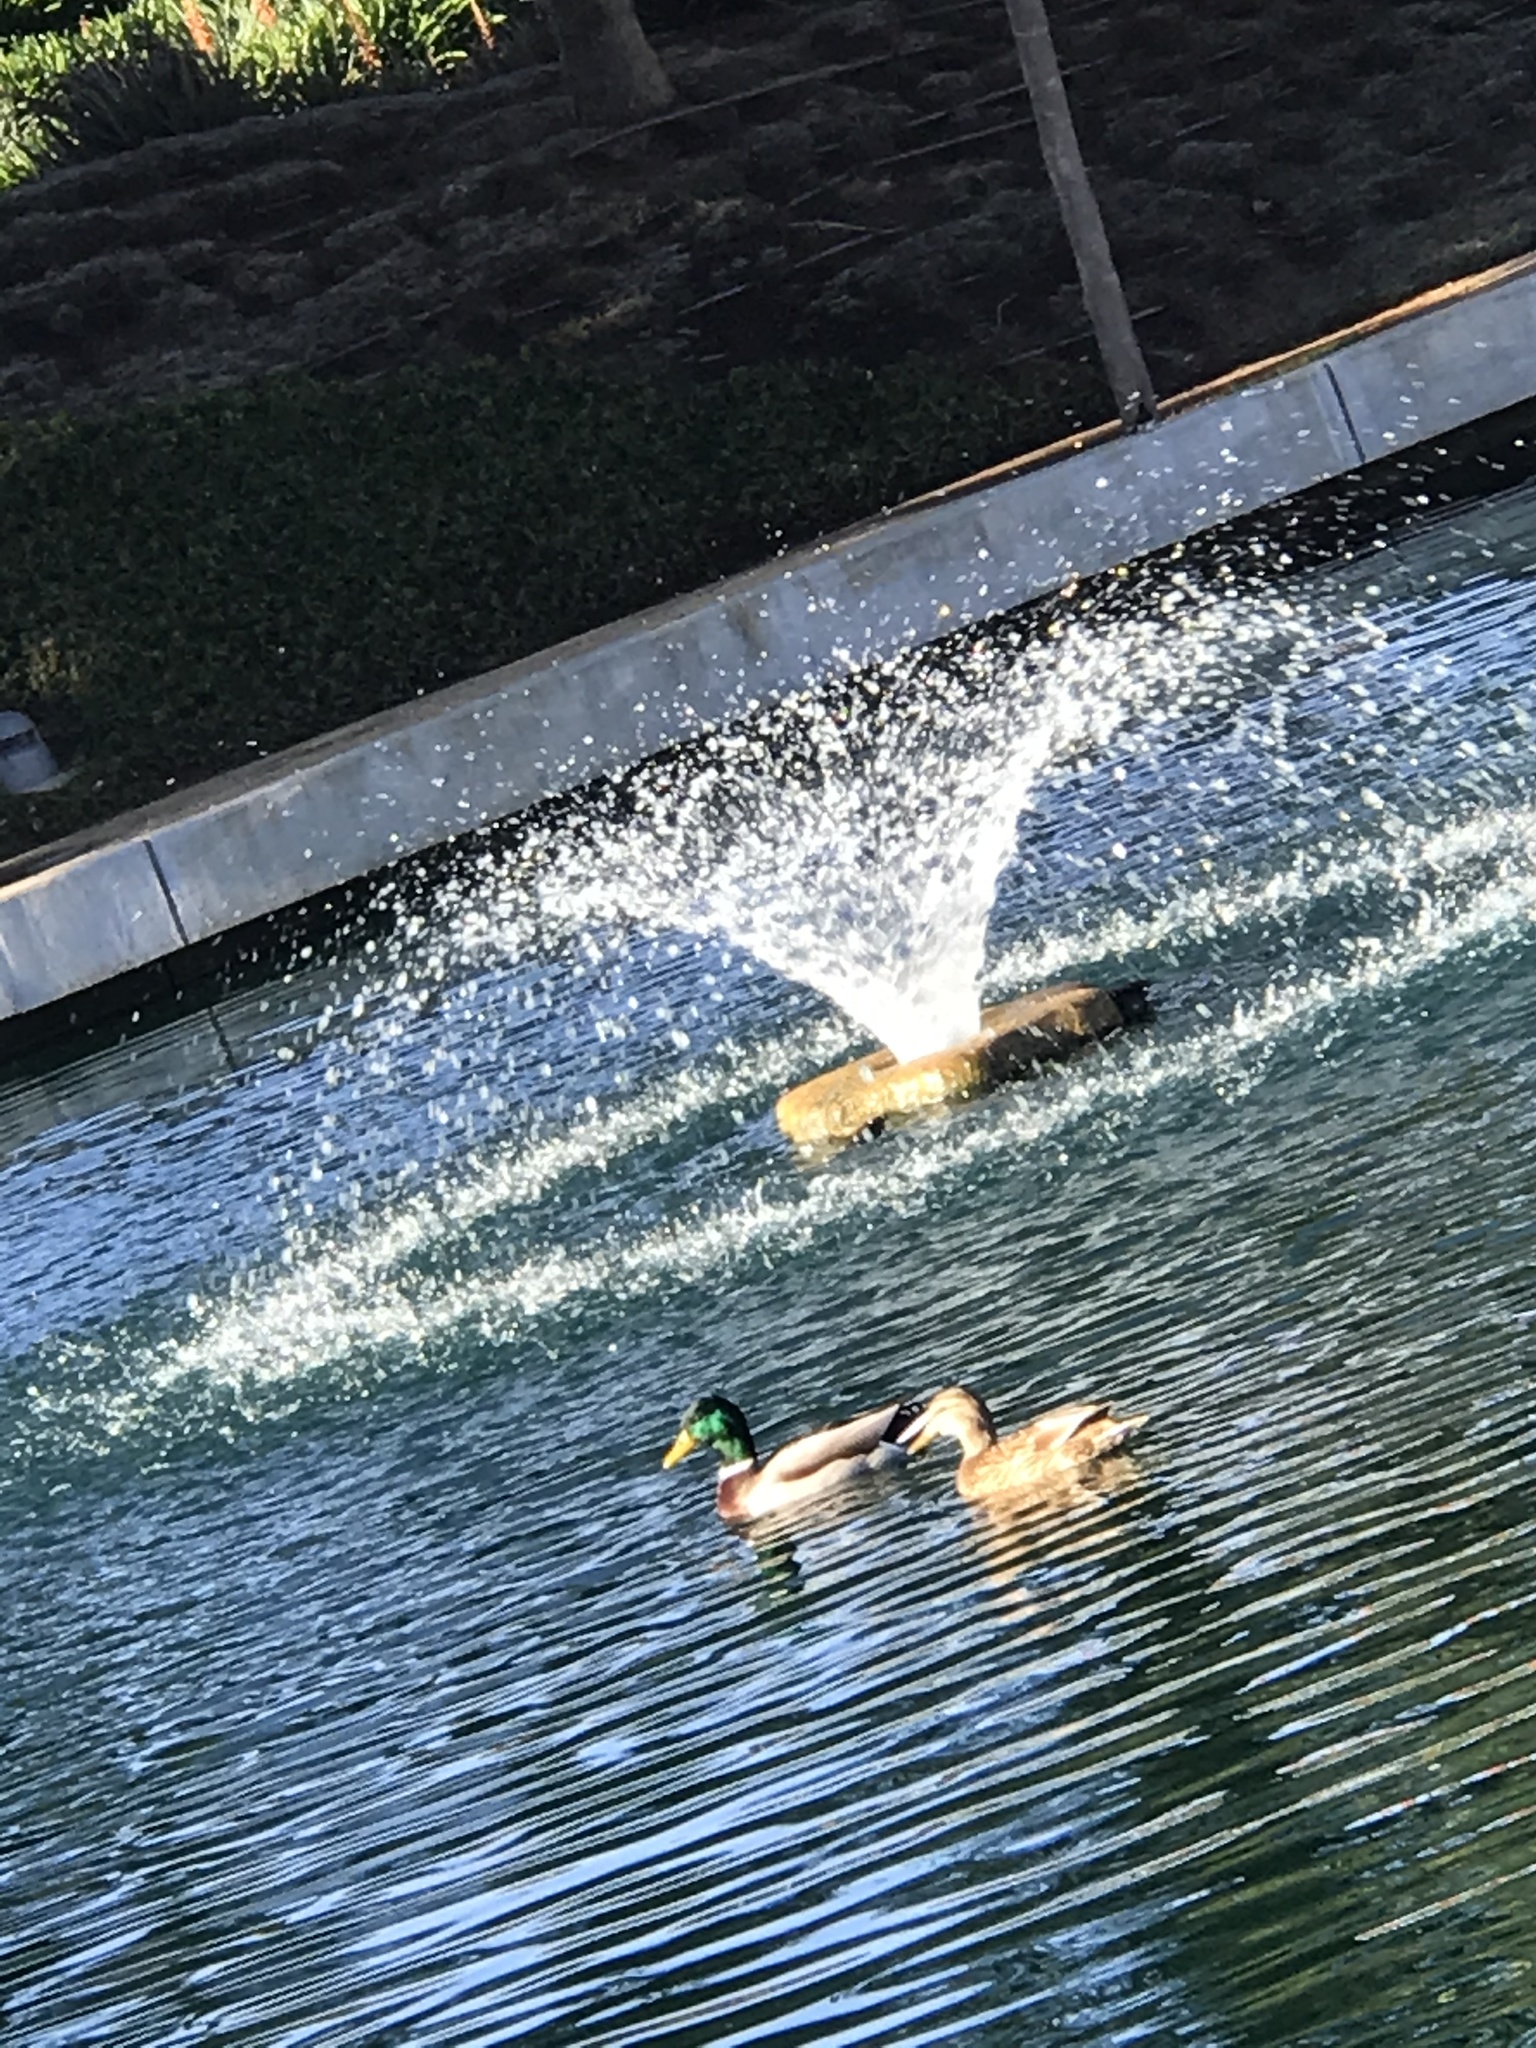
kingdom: Animalia
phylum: Chordata
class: Aves
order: Anseriformes
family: Anatidae
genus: Anas
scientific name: Anas platyrhynchos
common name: Mallard
